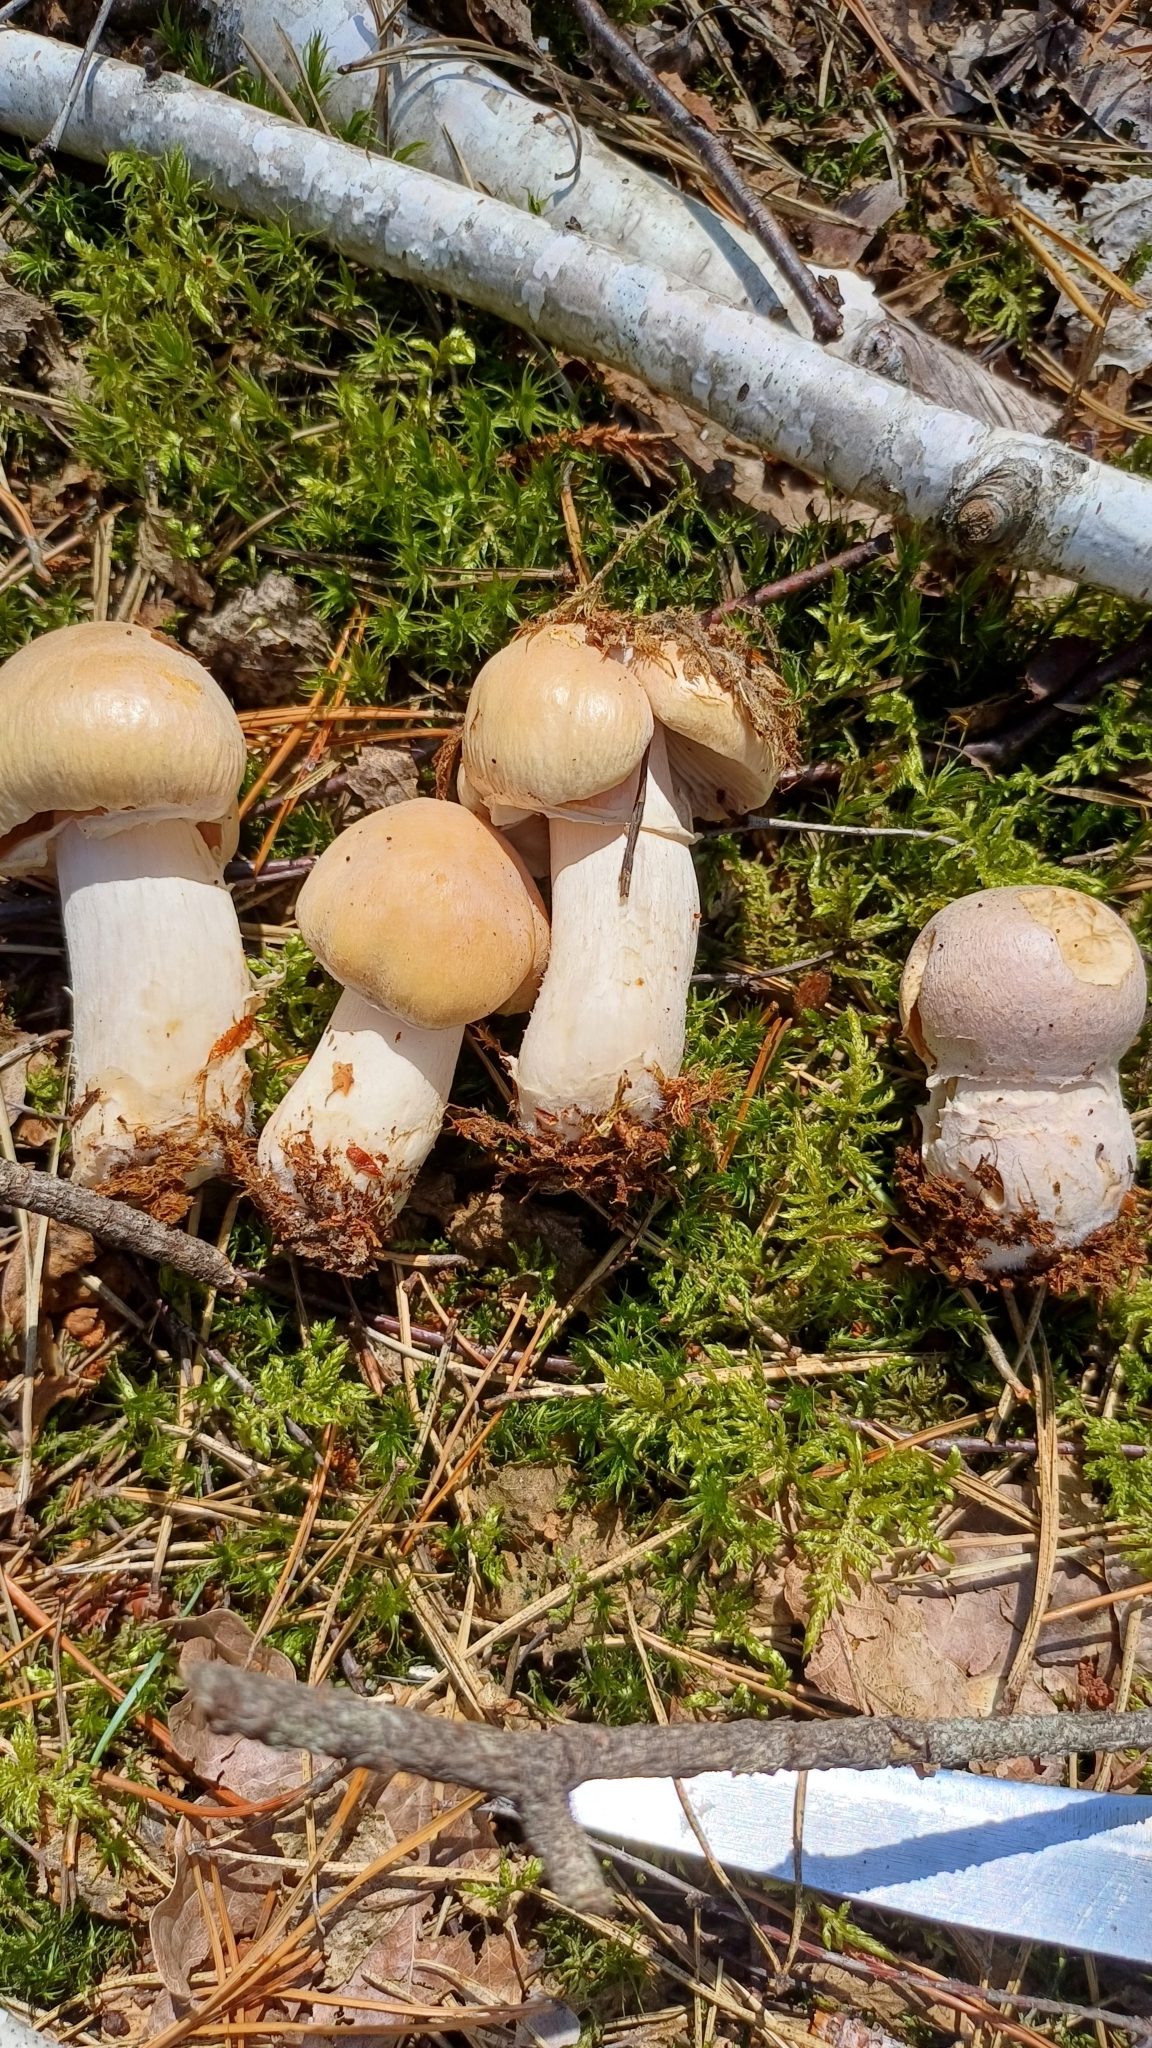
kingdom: Fungi
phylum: Basidiomycota
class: Agaricomycetes
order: Agaricales
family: Cortinariaceae
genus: Cortinarius
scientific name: Cortinarius caperatus
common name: The gypsy
